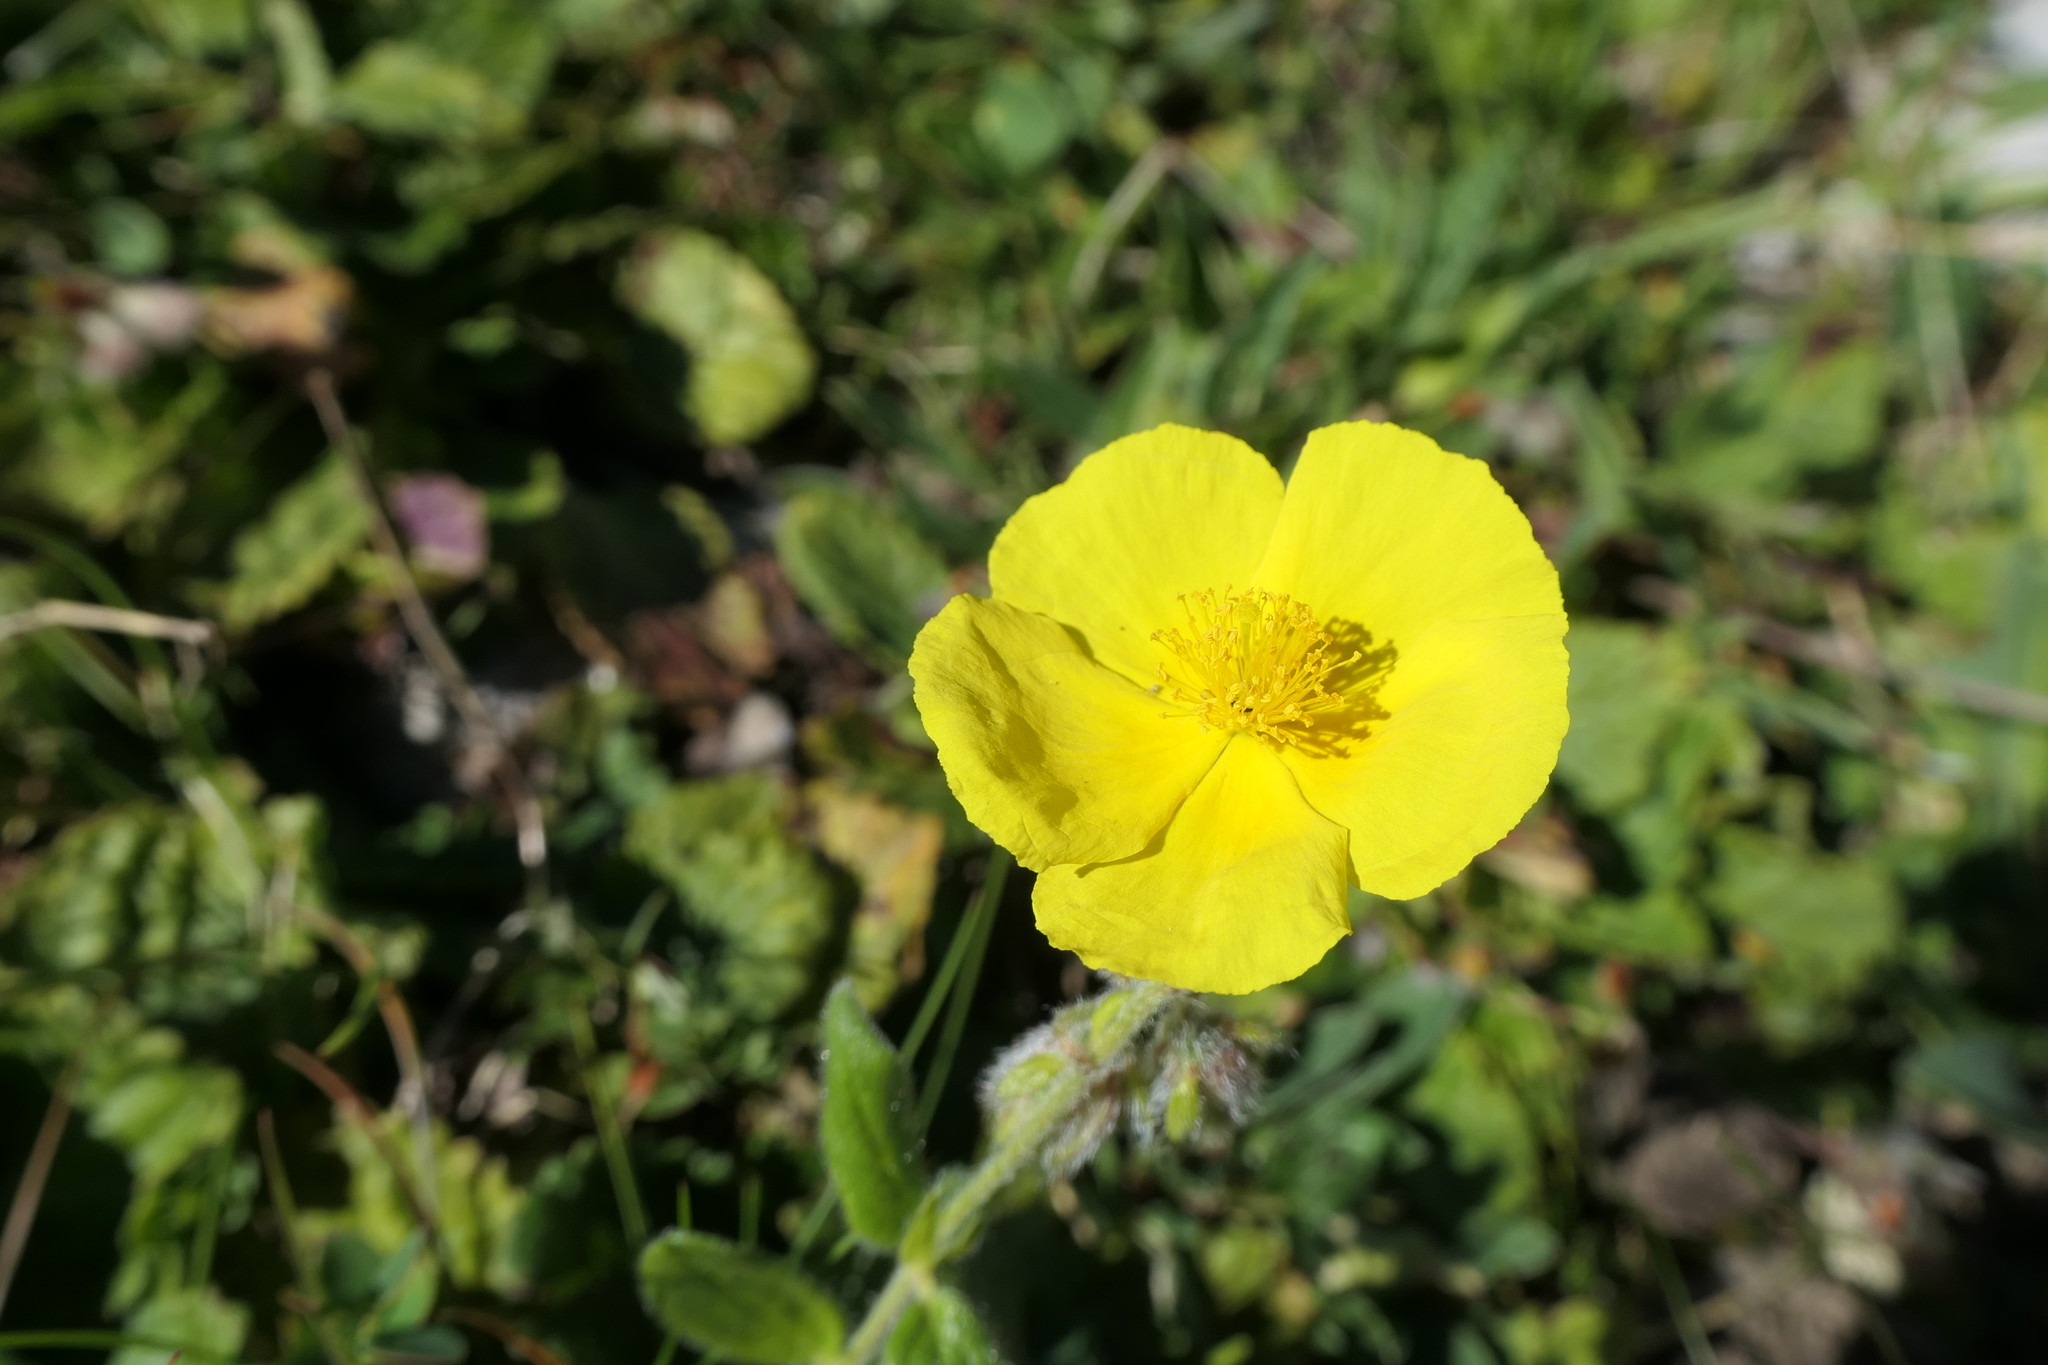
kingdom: Plantae
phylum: Tracheophyta
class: Magnoliopsida
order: Malvales
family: Cistaceae
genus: Helianthemum
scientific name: Helianthemum nummularium
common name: Common rock-rose
